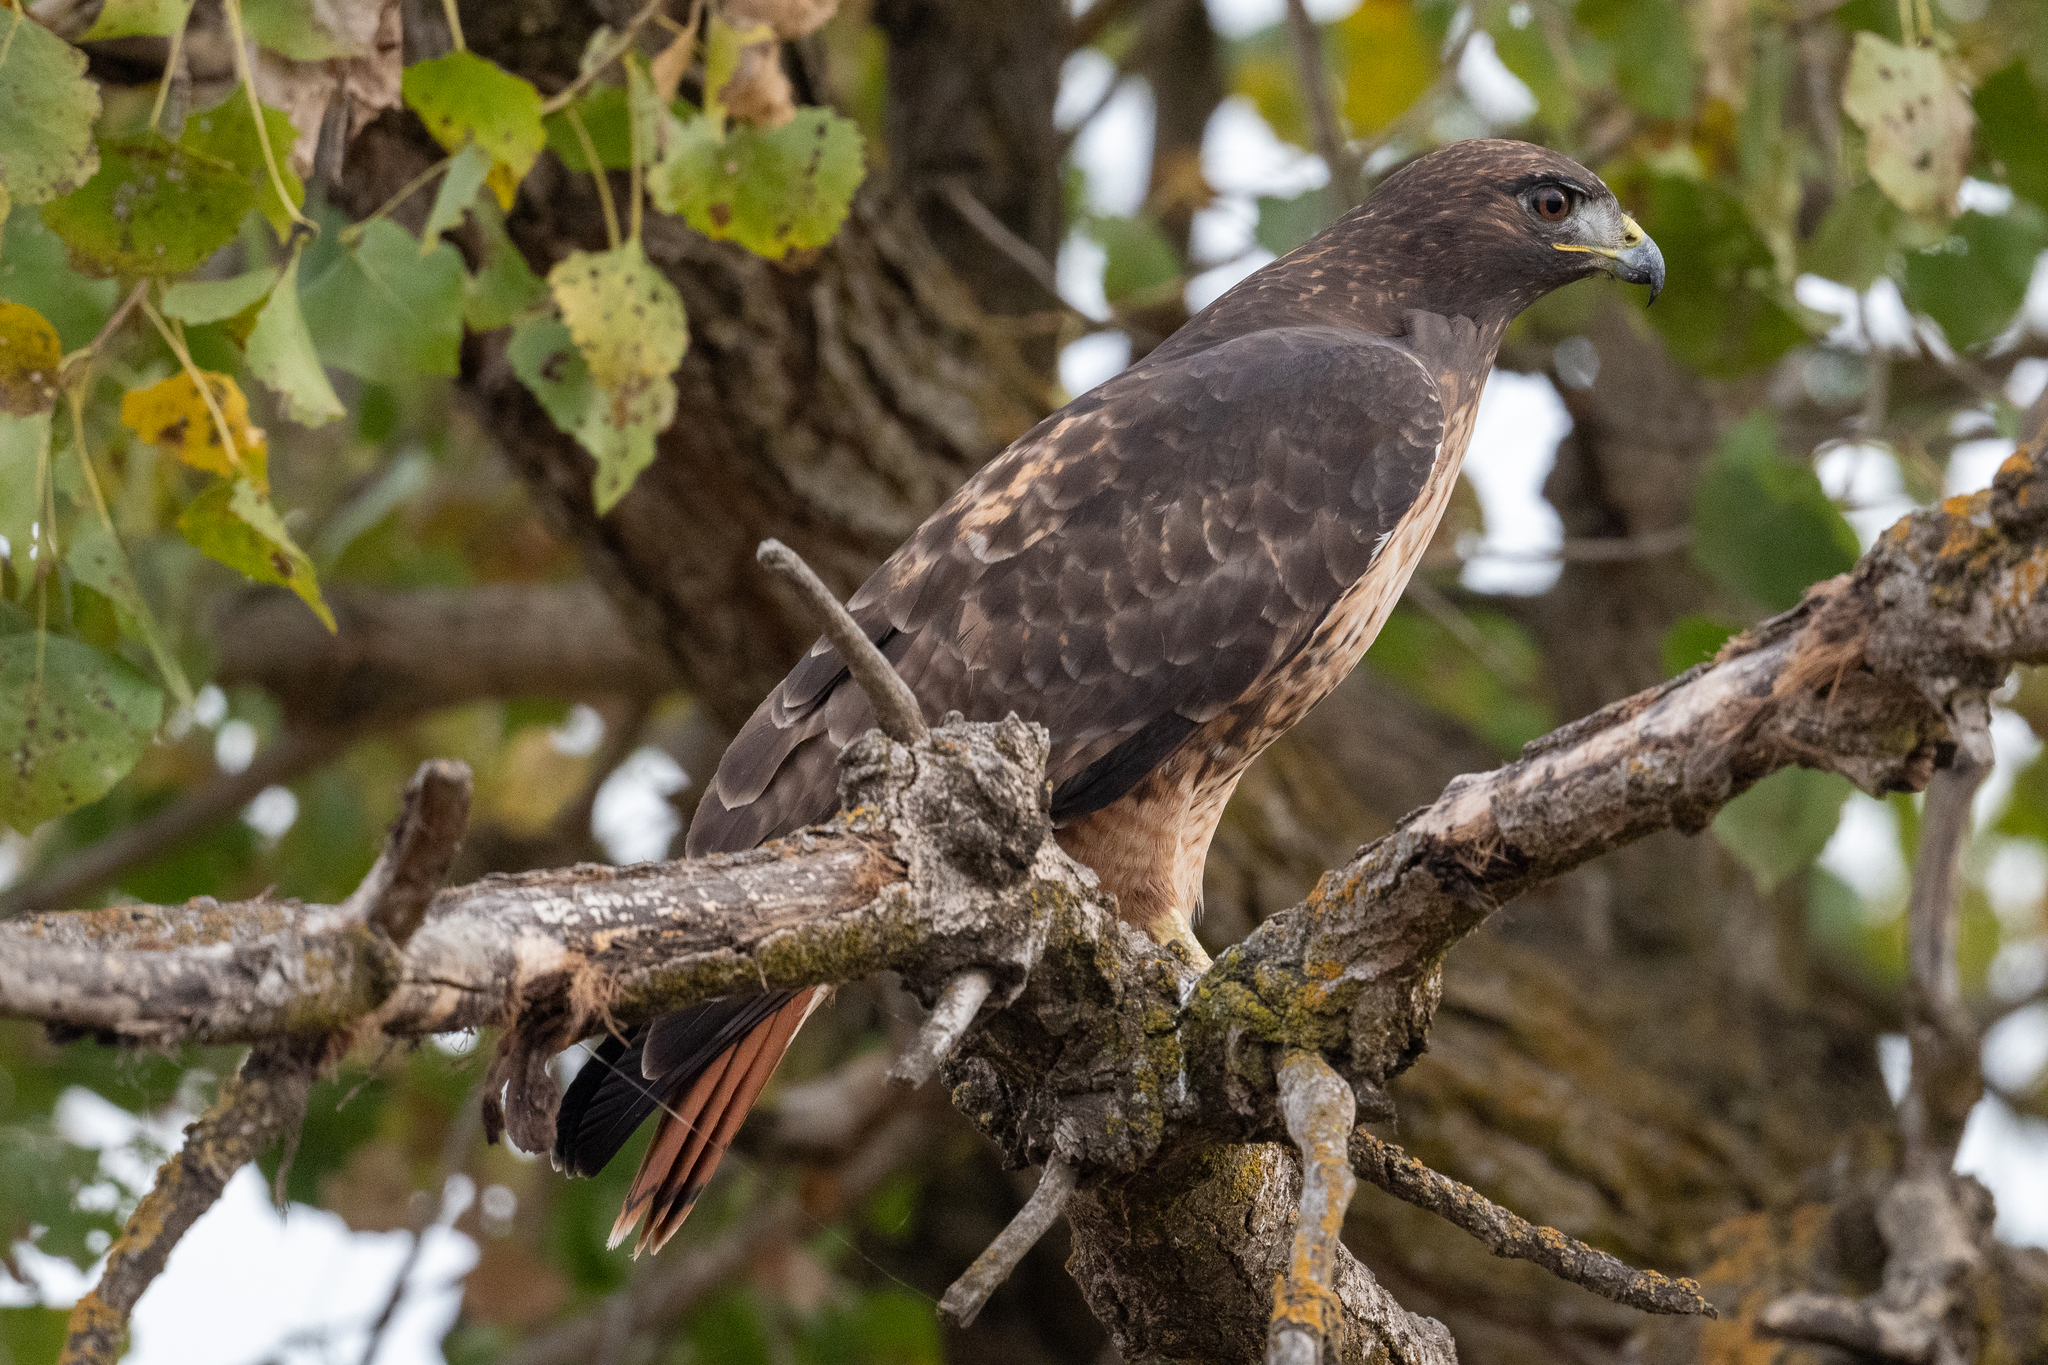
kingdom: Animalia
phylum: Chordata
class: Aves
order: Accipitriformes
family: Accipitridae
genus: Buteo
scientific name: Buteo jamaicensis
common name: Red-tailed hawk
